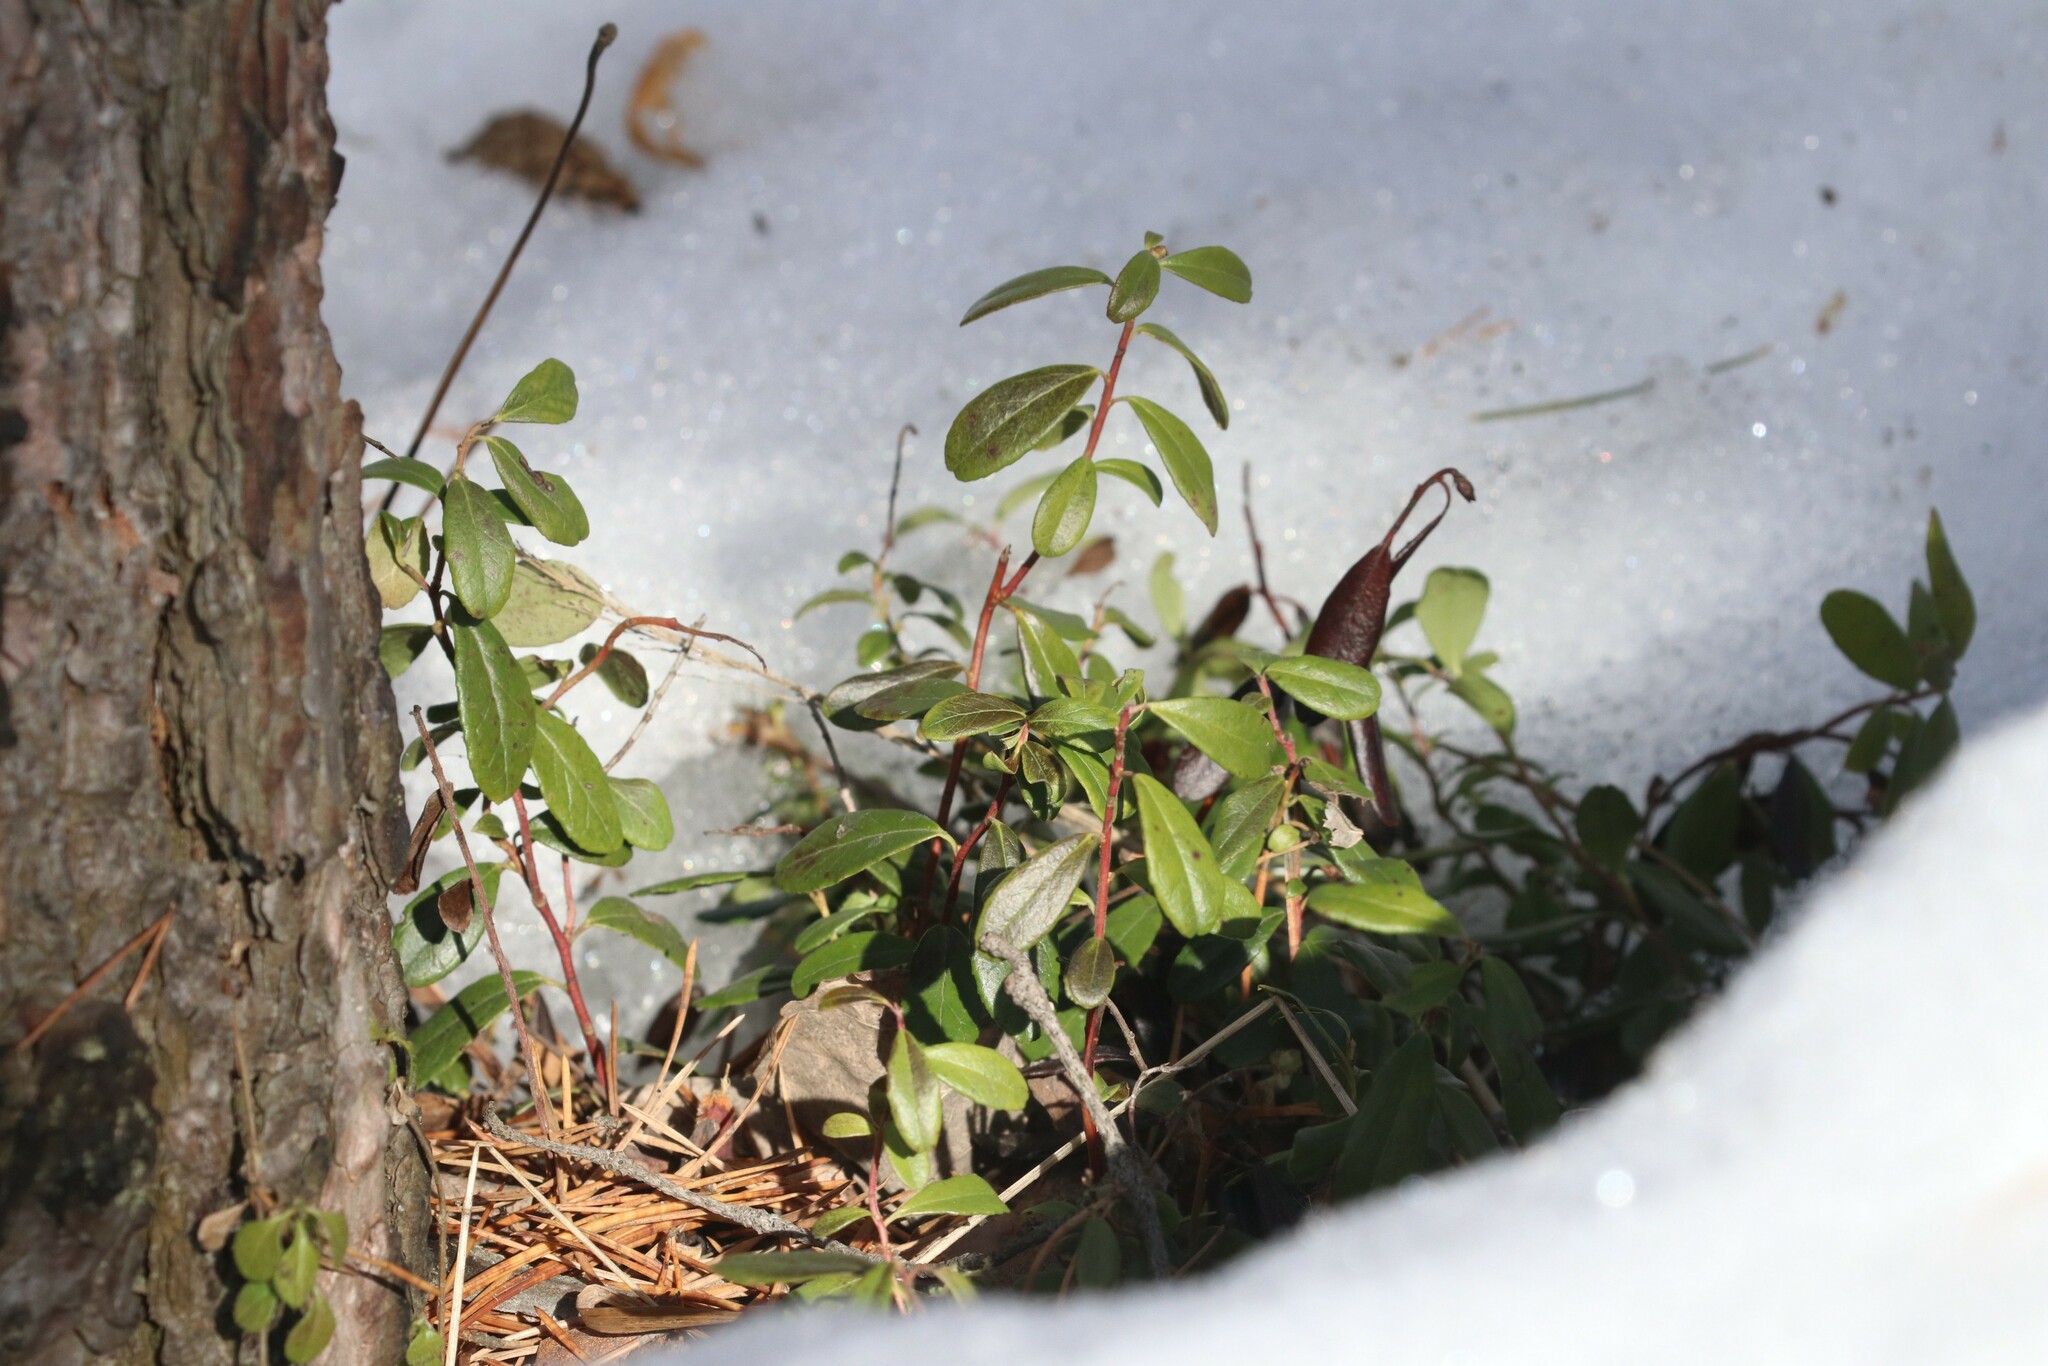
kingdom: Plantae
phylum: Tracheophyta
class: Magnoliopsida
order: Ericales
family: Ericaceae
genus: Vaccinium
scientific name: Vaccinium vitis-idaea
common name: Cowberry
